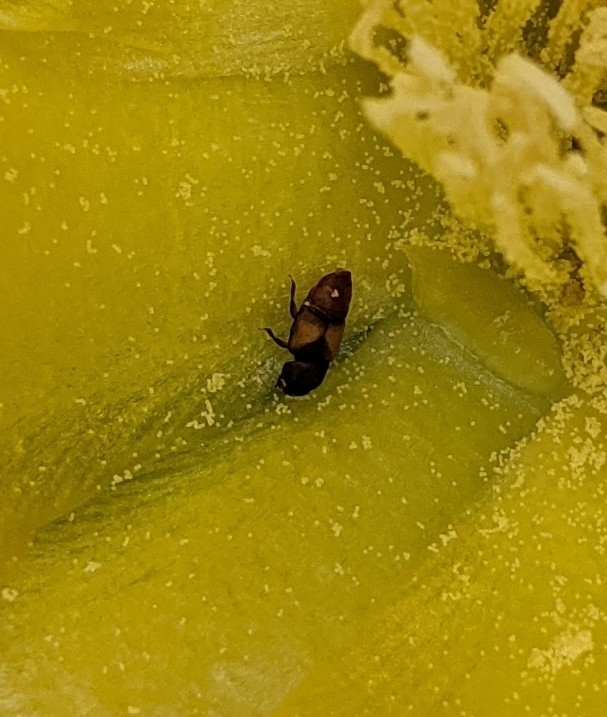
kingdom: Animalia
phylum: Arthropoda
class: Insecta
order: Coleoptera
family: Nitidulidae
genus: Nitops
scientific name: Nitops pallipennis
